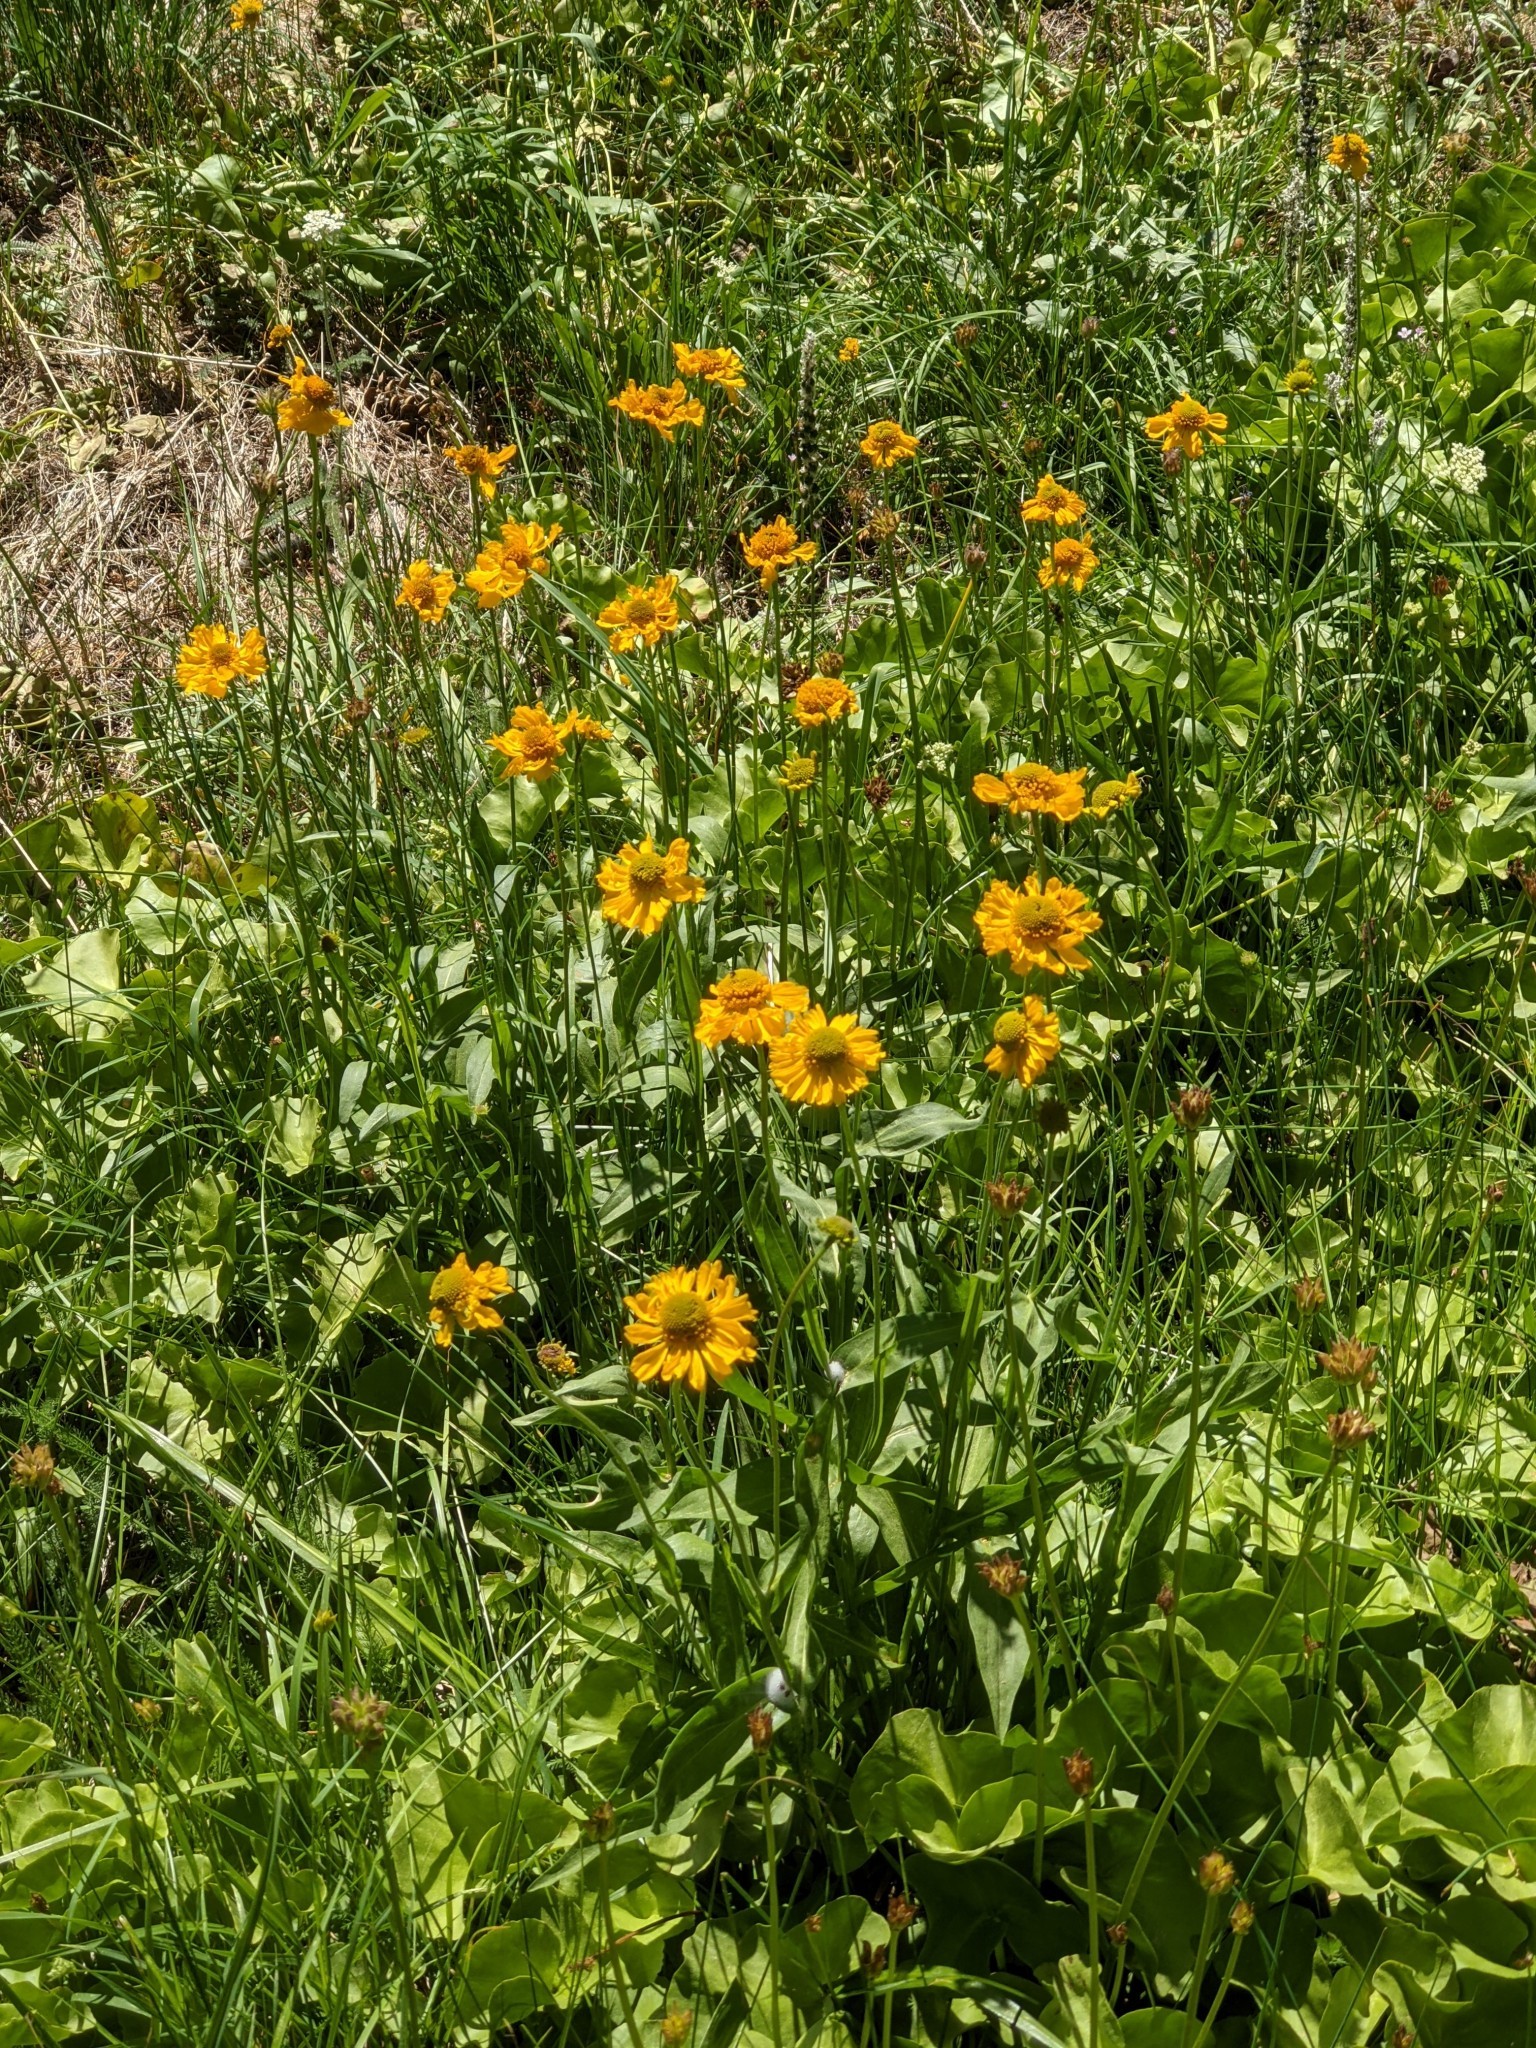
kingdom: Plantae
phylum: Tracheophyta
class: Magnoliopsida
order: Asterales
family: Asteraceae
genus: Helenium
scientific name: Helenium bigelovii
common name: Bigelow's sneezeweed
